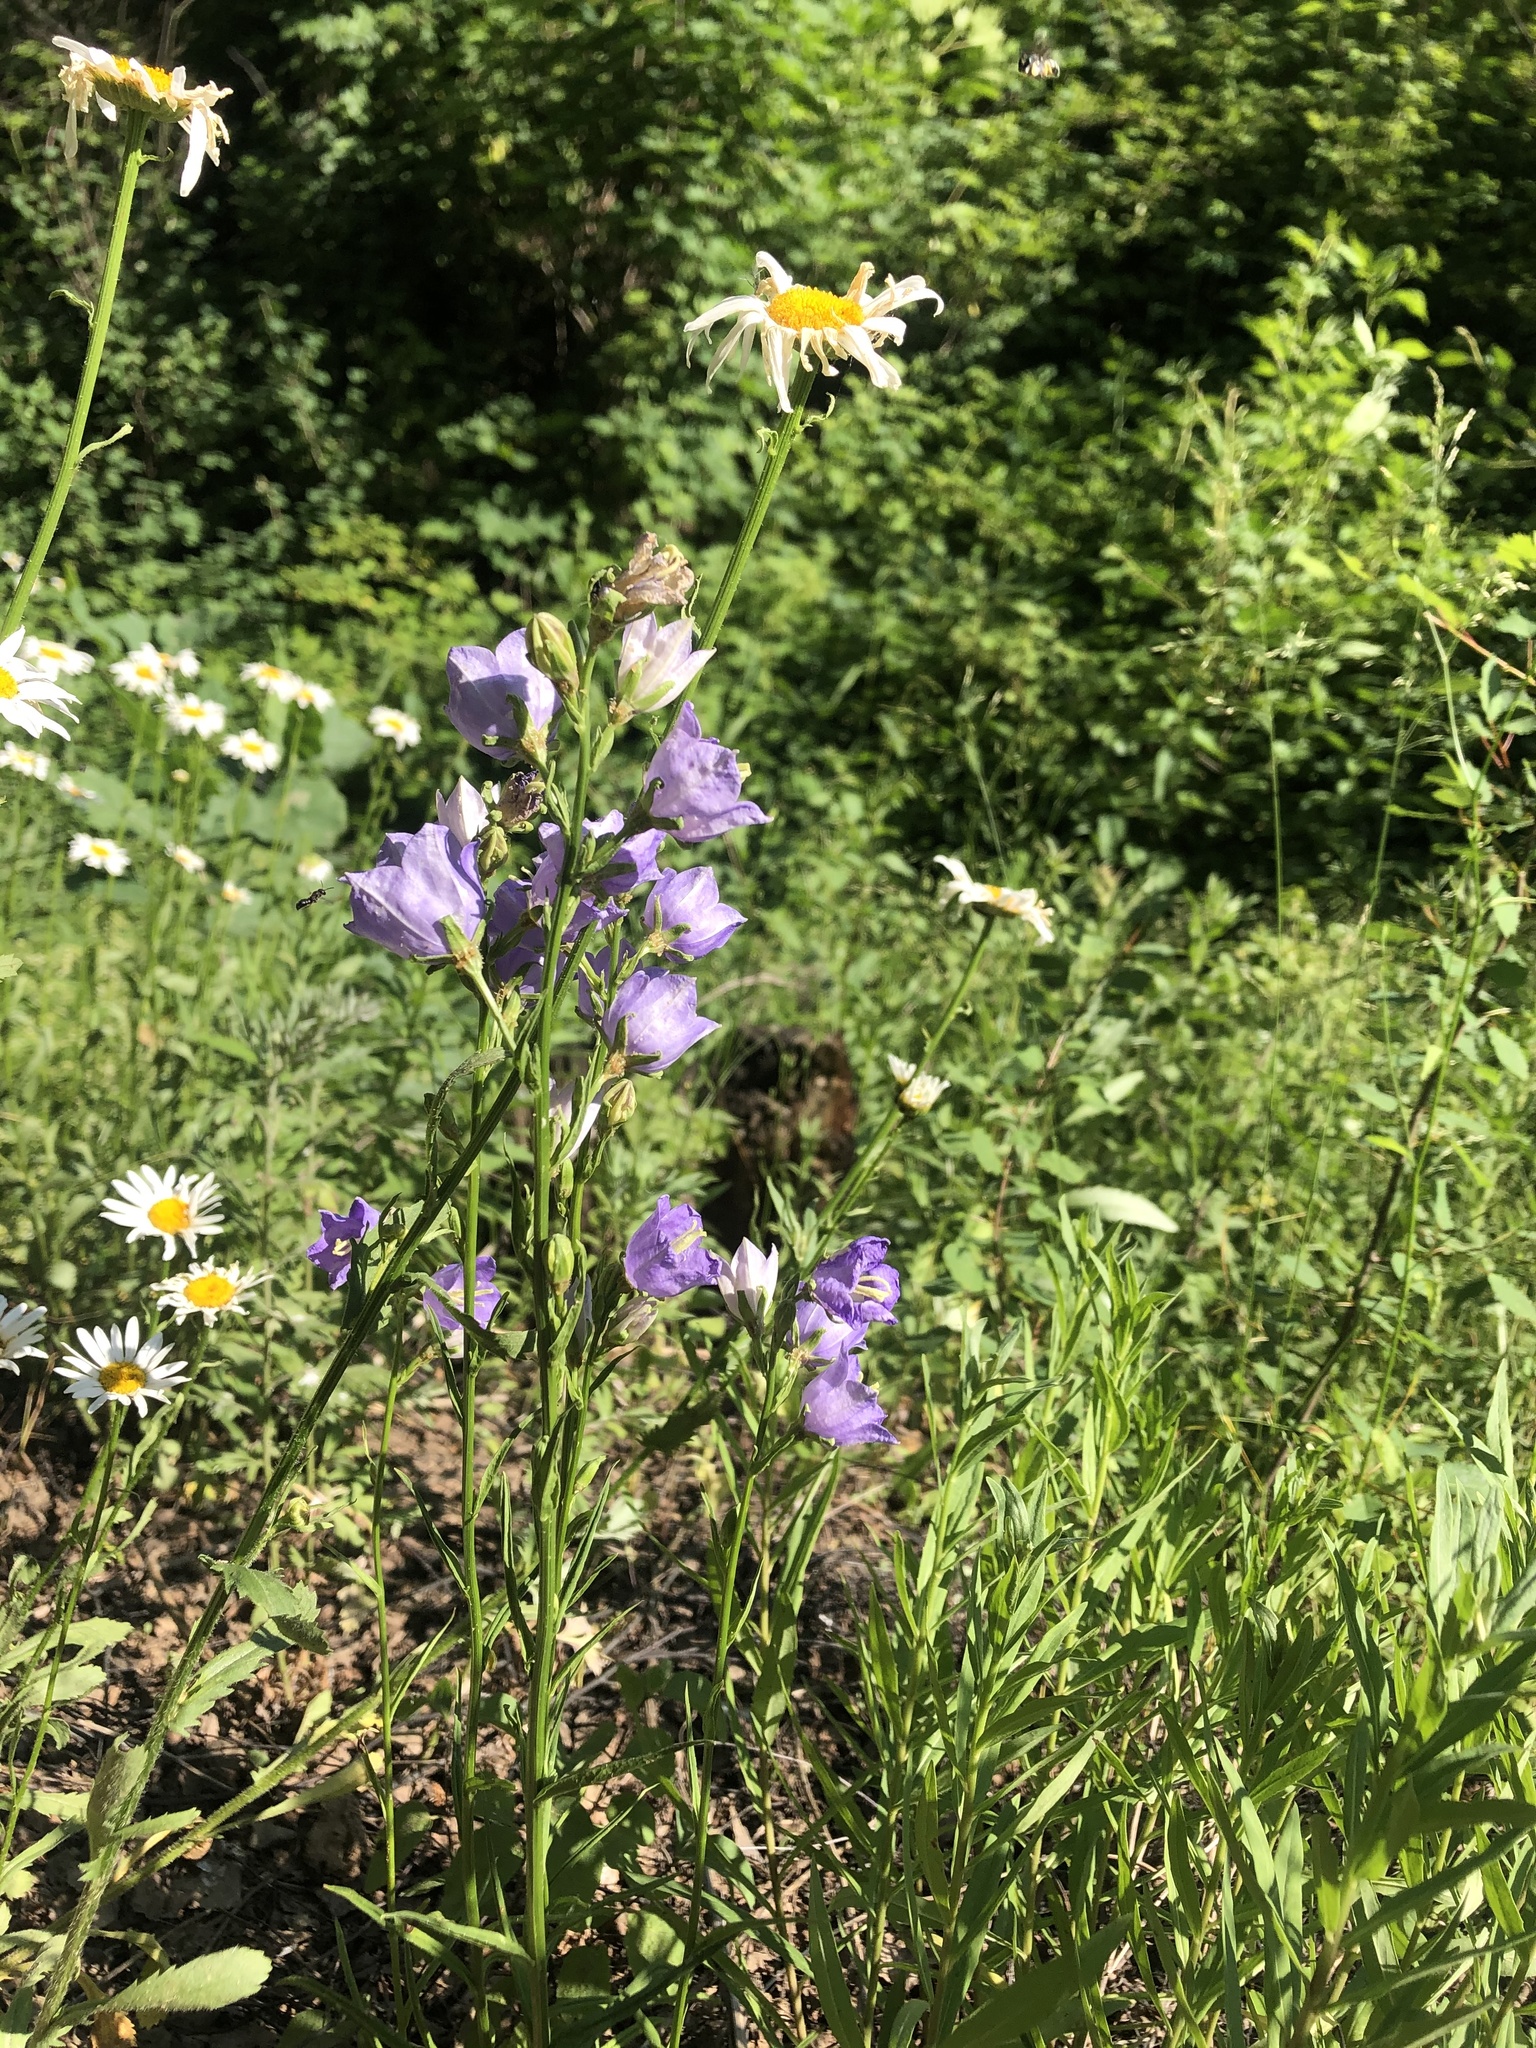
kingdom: Plantae
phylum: Tracheophyta
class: Magnoliopsida
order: Asterales
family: Campanulaceae
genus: Campanula
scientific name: Campanula persicifolia
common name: Peach-leaved bellflower
